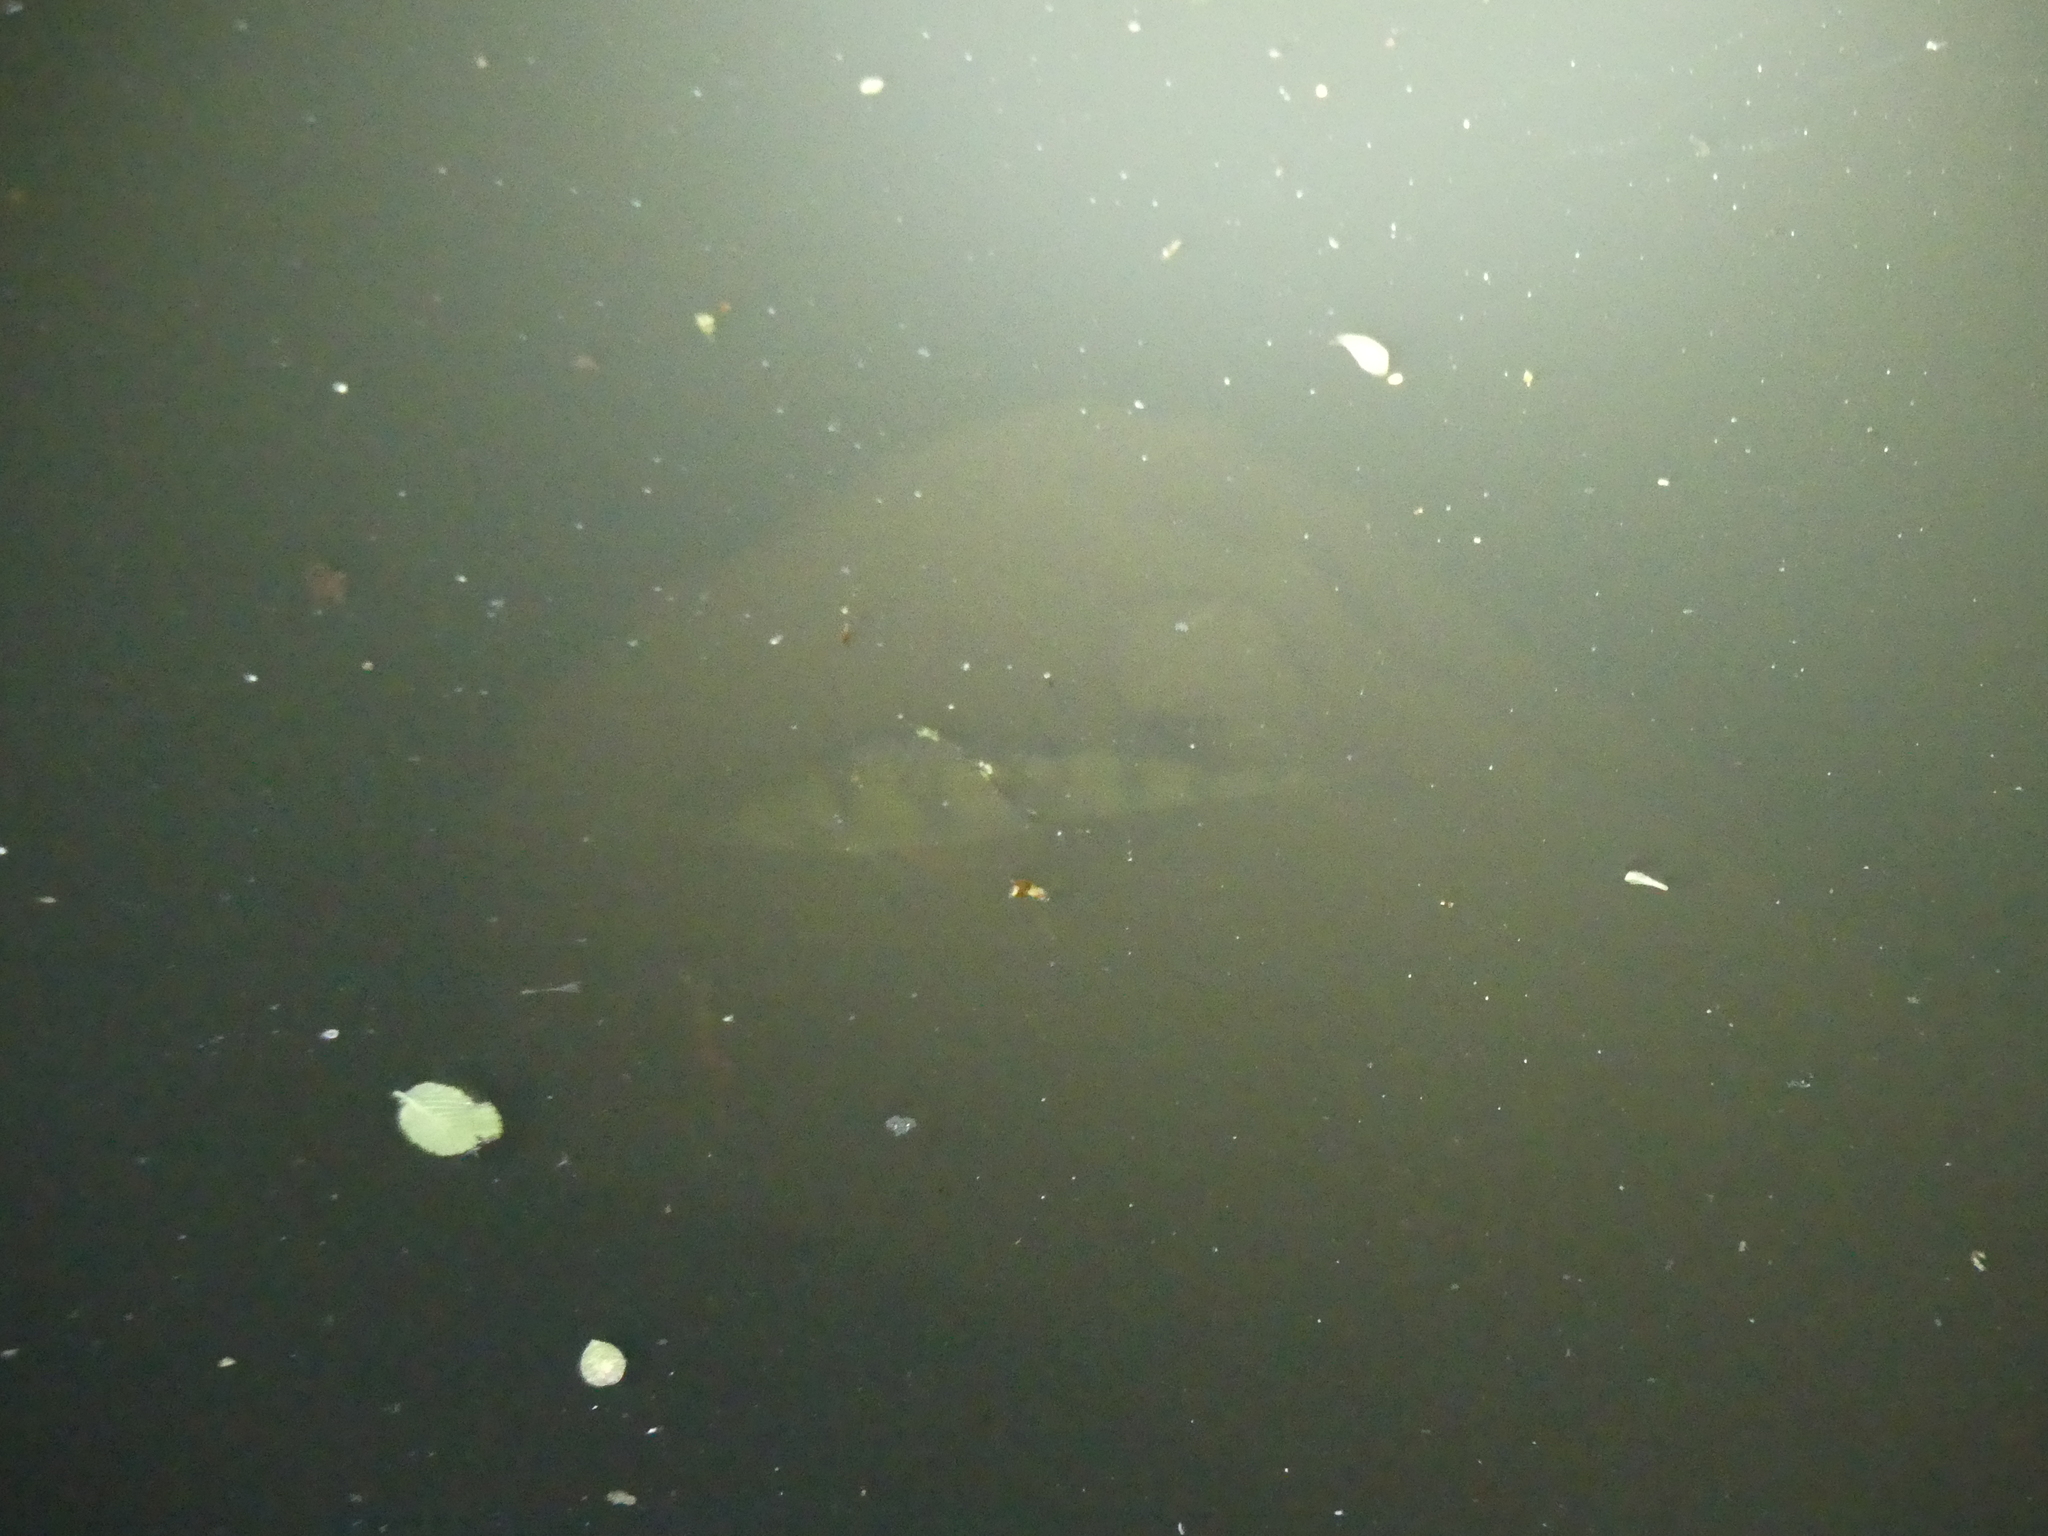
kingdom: Animalia
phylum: Chordata
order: Perciformes
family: Percidae
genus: Perca
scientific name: Perca fluviatilis
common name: Perch
